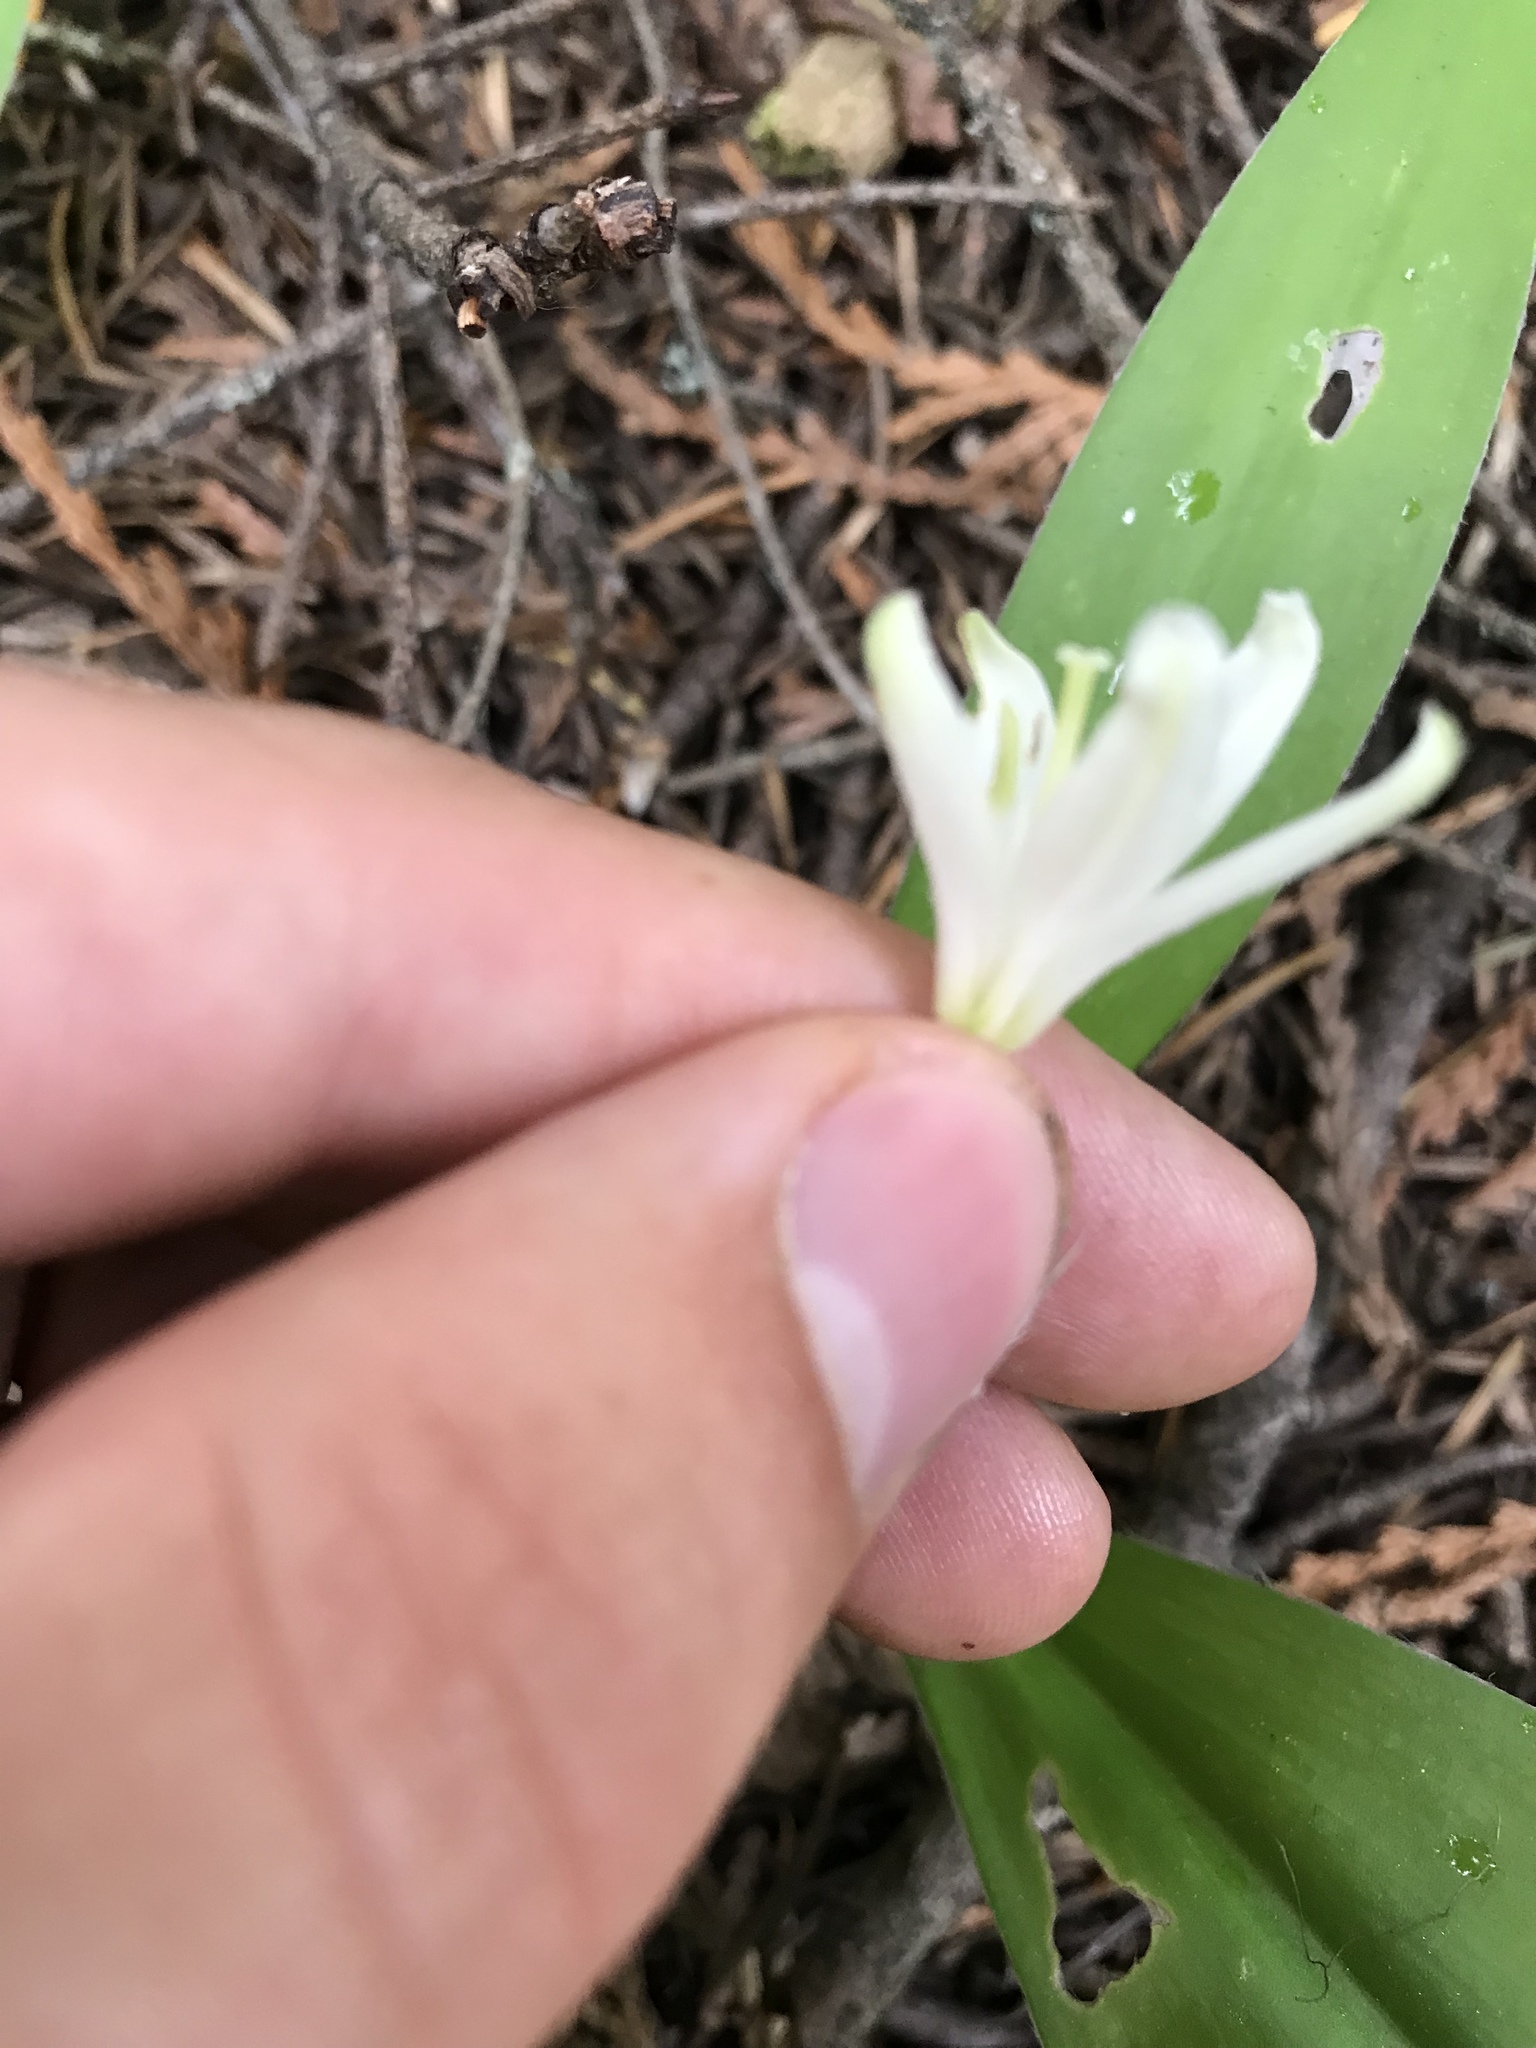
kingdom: Plantae
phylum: Tracheophyta
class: Liliopsida
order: Liliales
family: Liliaceae
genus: Clintonia
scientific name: Clintonia uniflora
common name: Queen's cup
